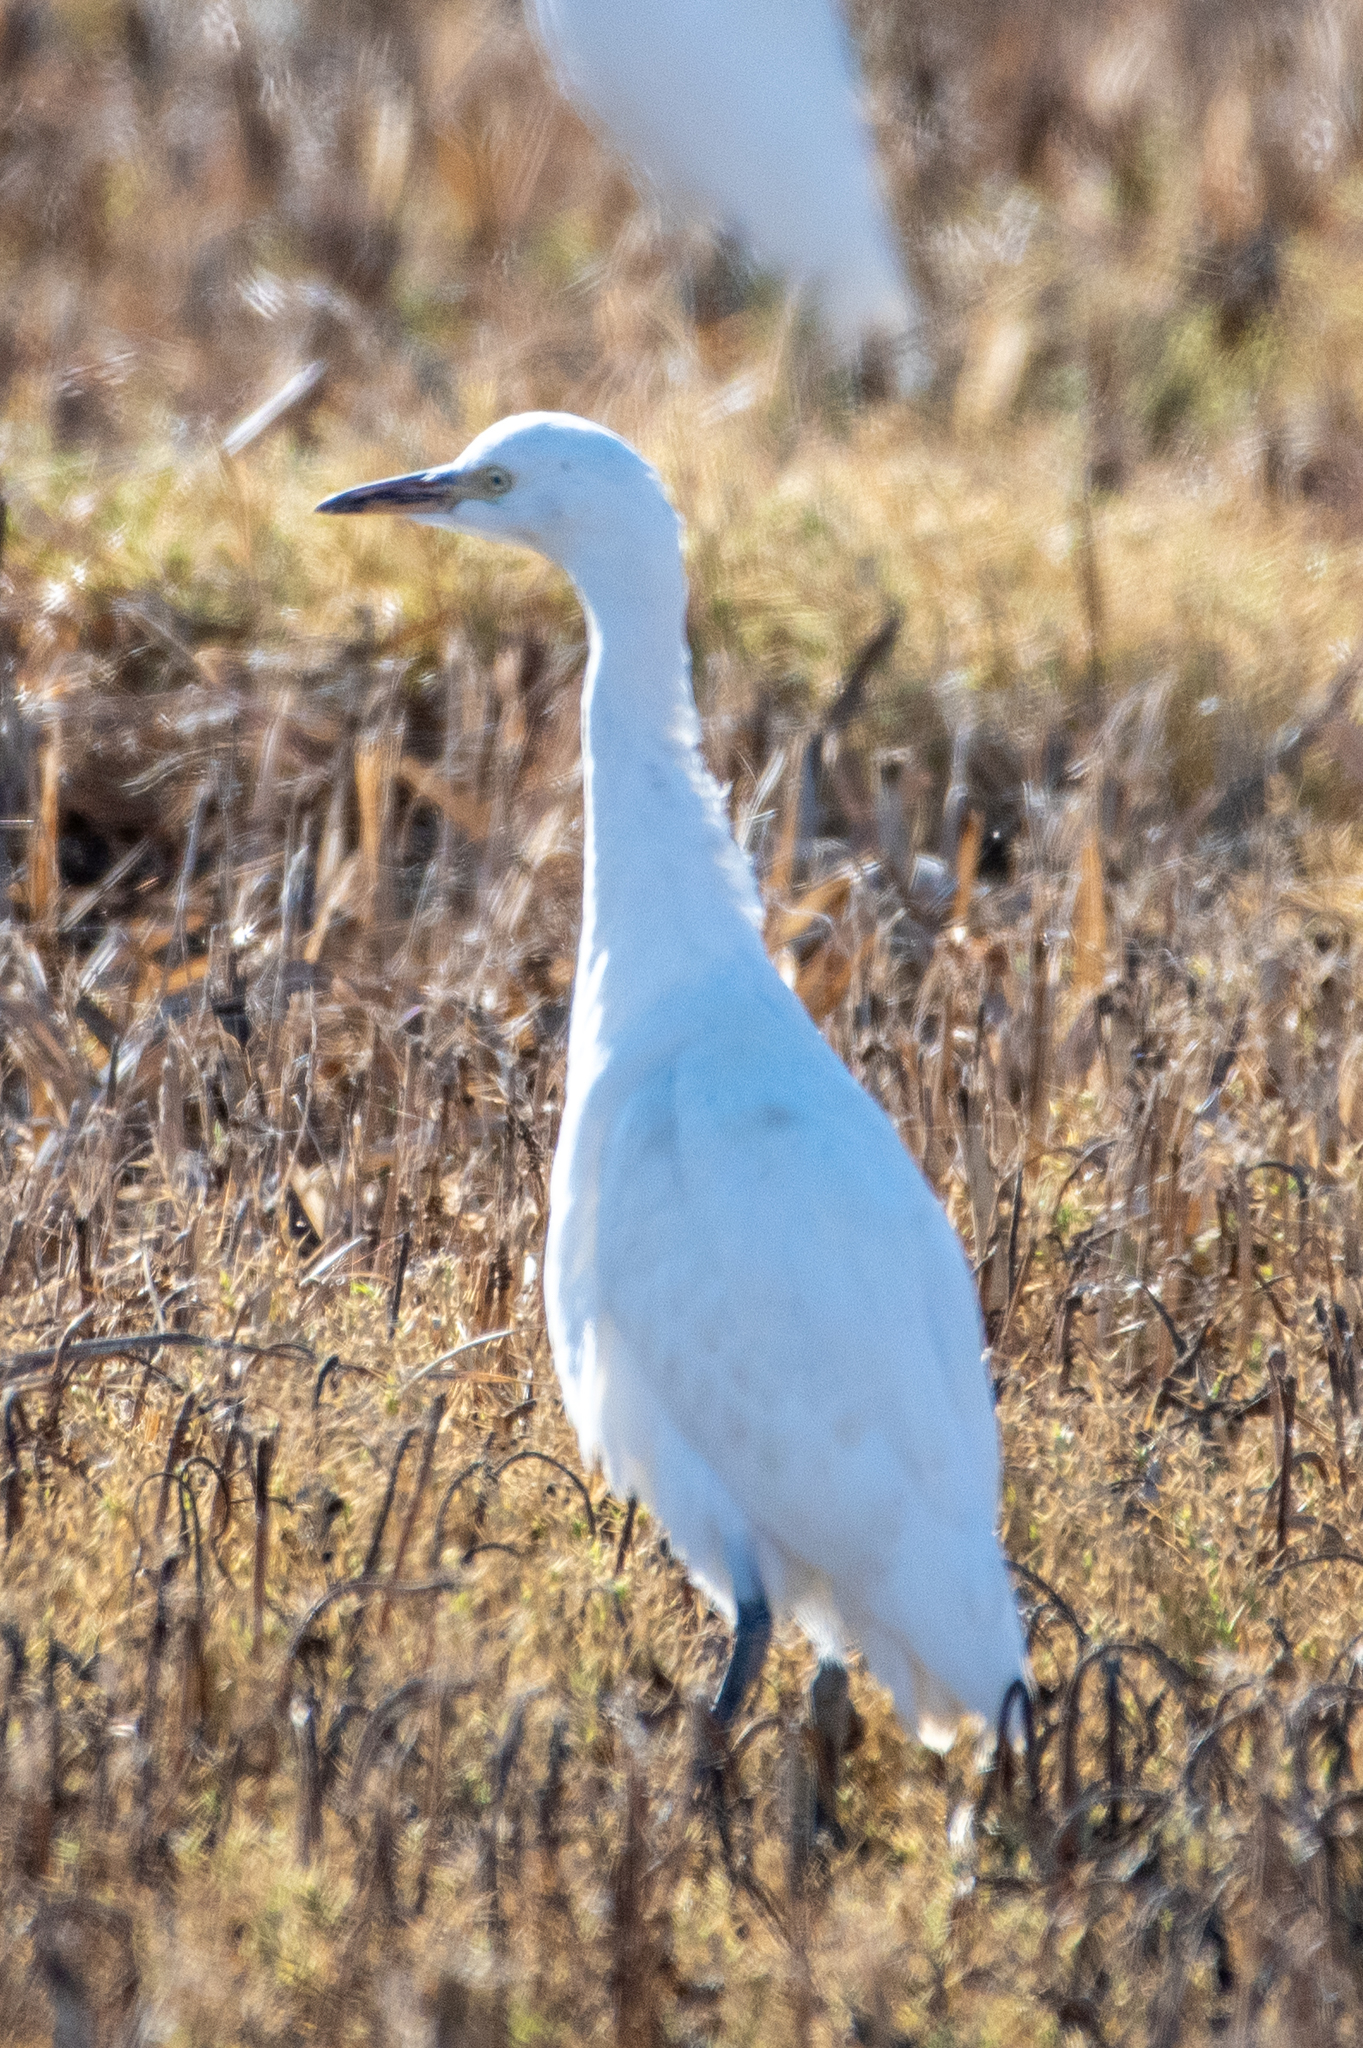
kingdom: Animalia
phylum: Chordata
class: Aves
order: Pelecaniformes
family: Ardeidae
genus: Bubulcus
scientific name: Bubulcus ibis
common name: Cattle egret
